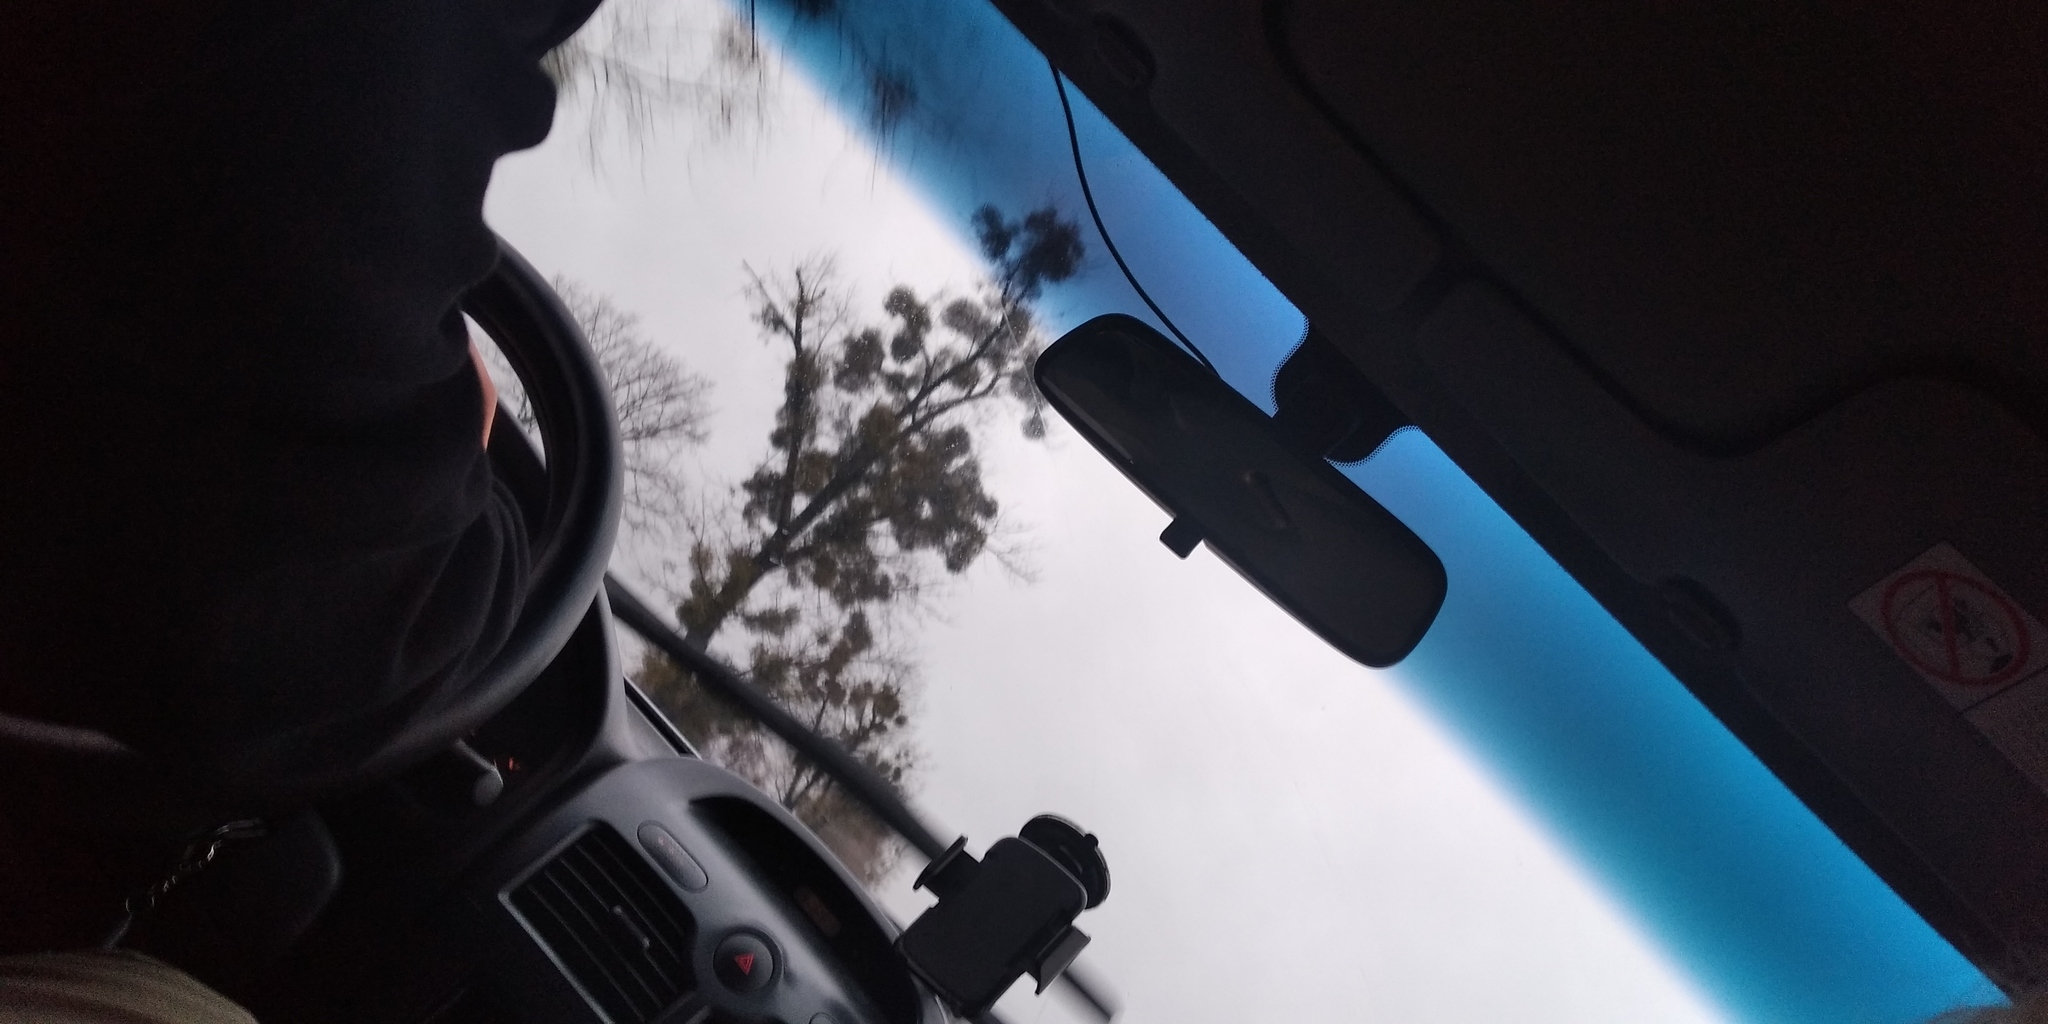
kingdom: Plantae
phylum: Tracheophyta
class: Magnoliopsida
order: Santalales
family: Viscaceae
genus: Viscum
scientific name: Viscum album
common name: Mistletoe
